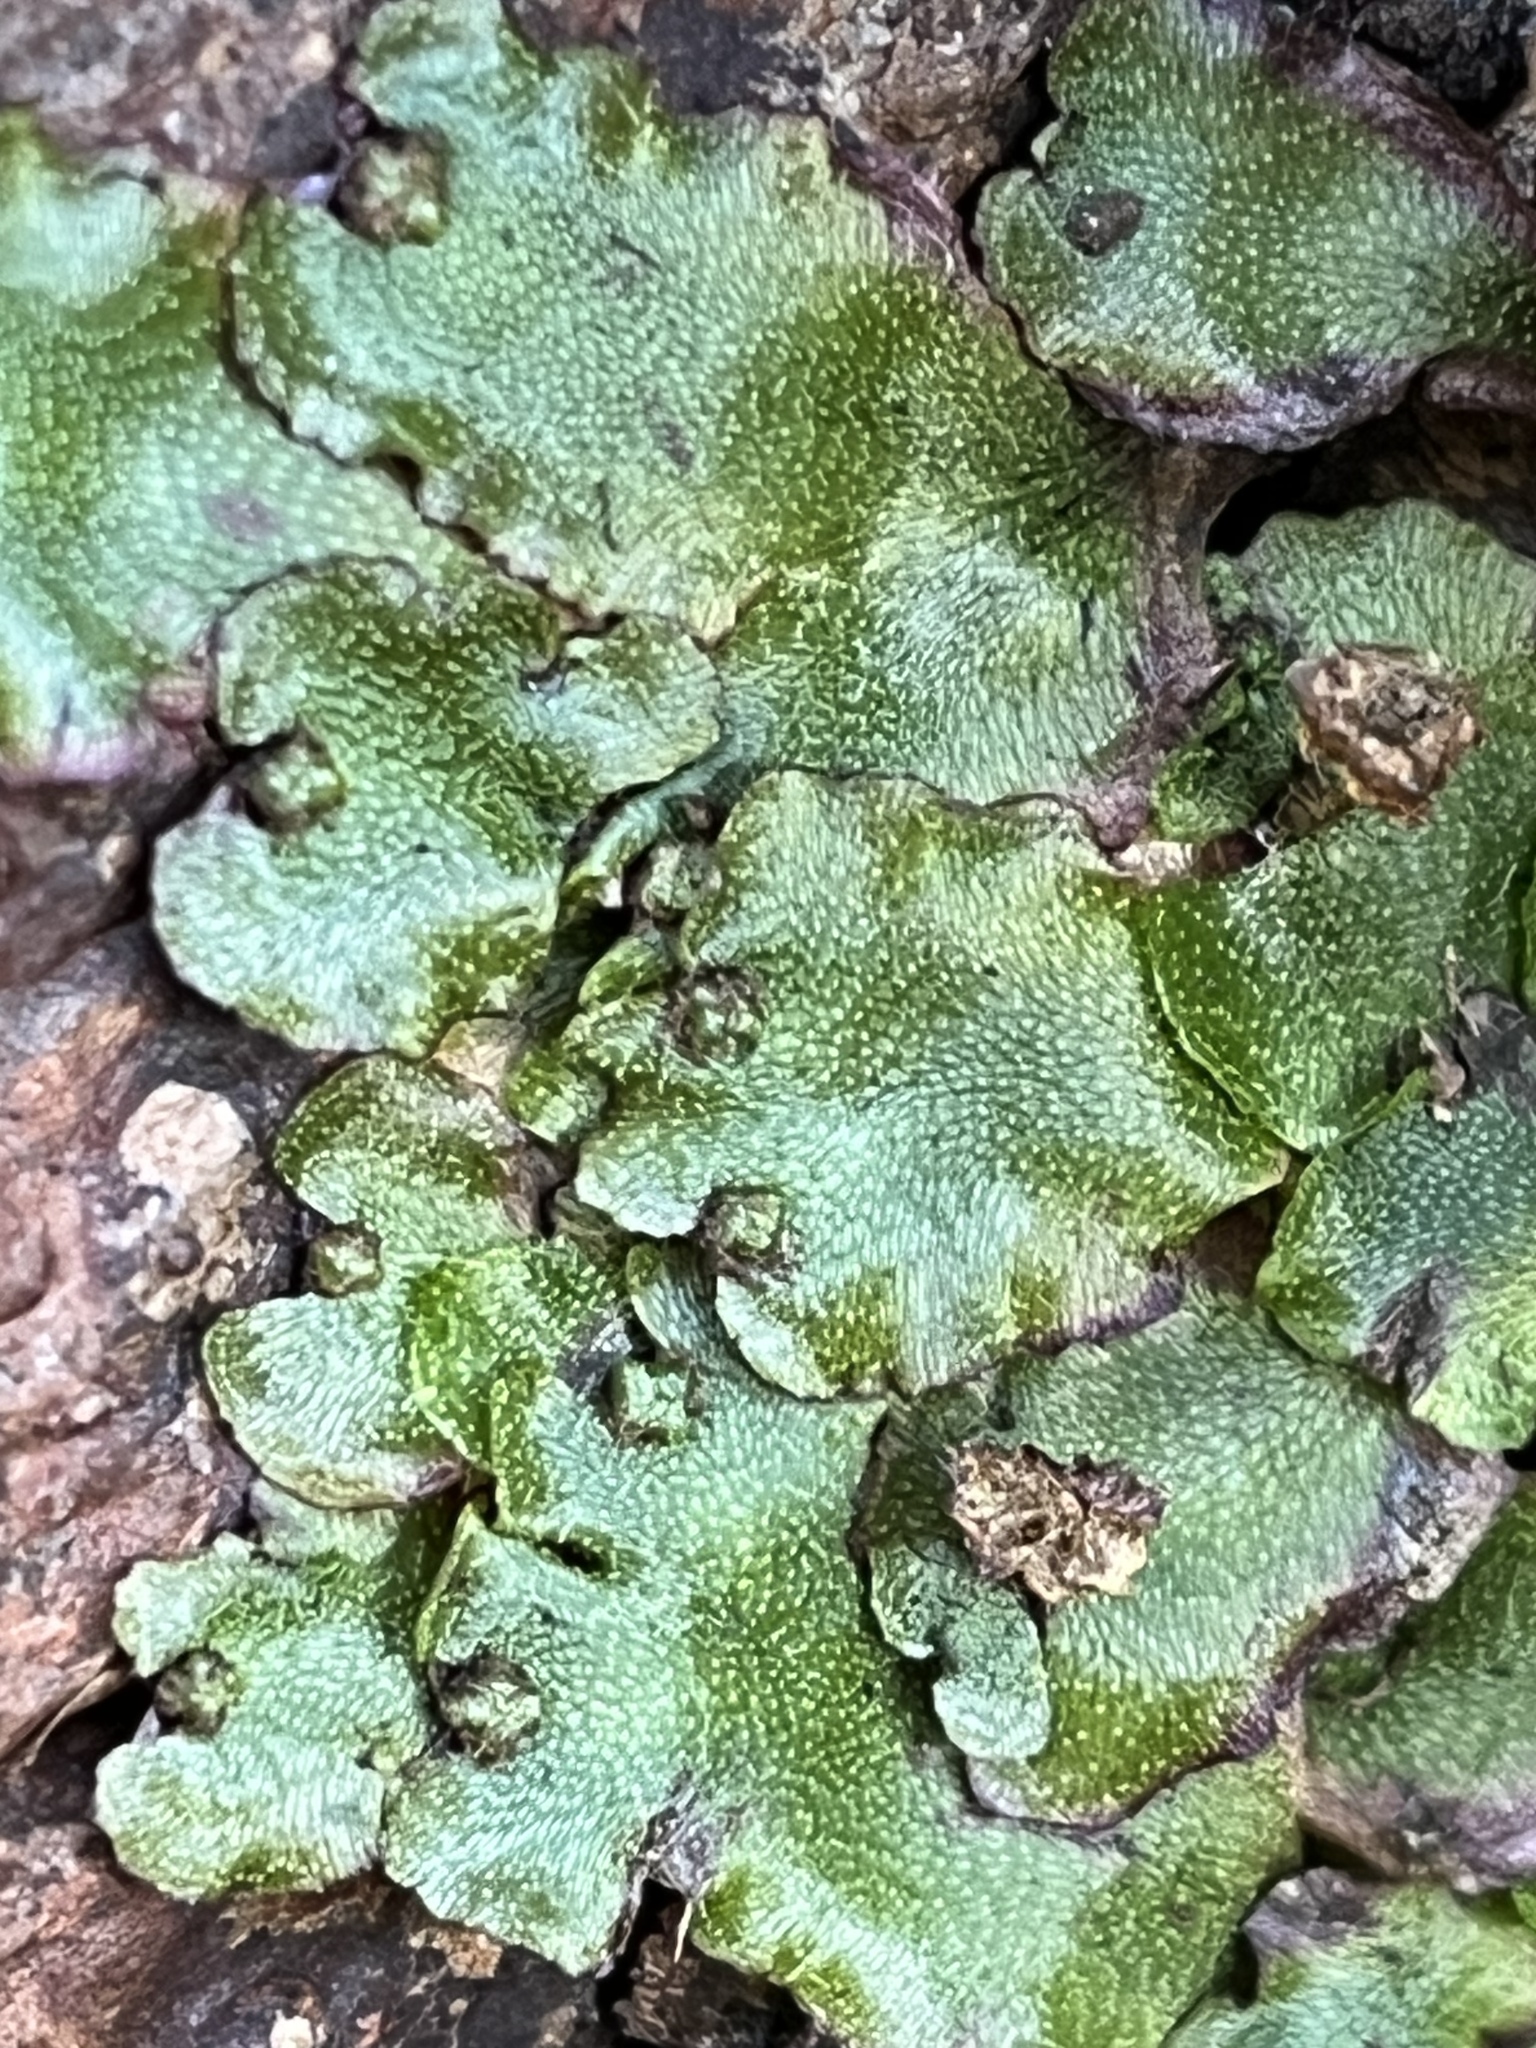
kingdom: Plantae
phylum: Marchantiophyta
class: Marchantiopsida
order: Marchantiales
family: Marchantiaceae
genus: Marchantia
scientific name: Marchantia quadrata
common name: Narrow mushroom-headed liverwort
